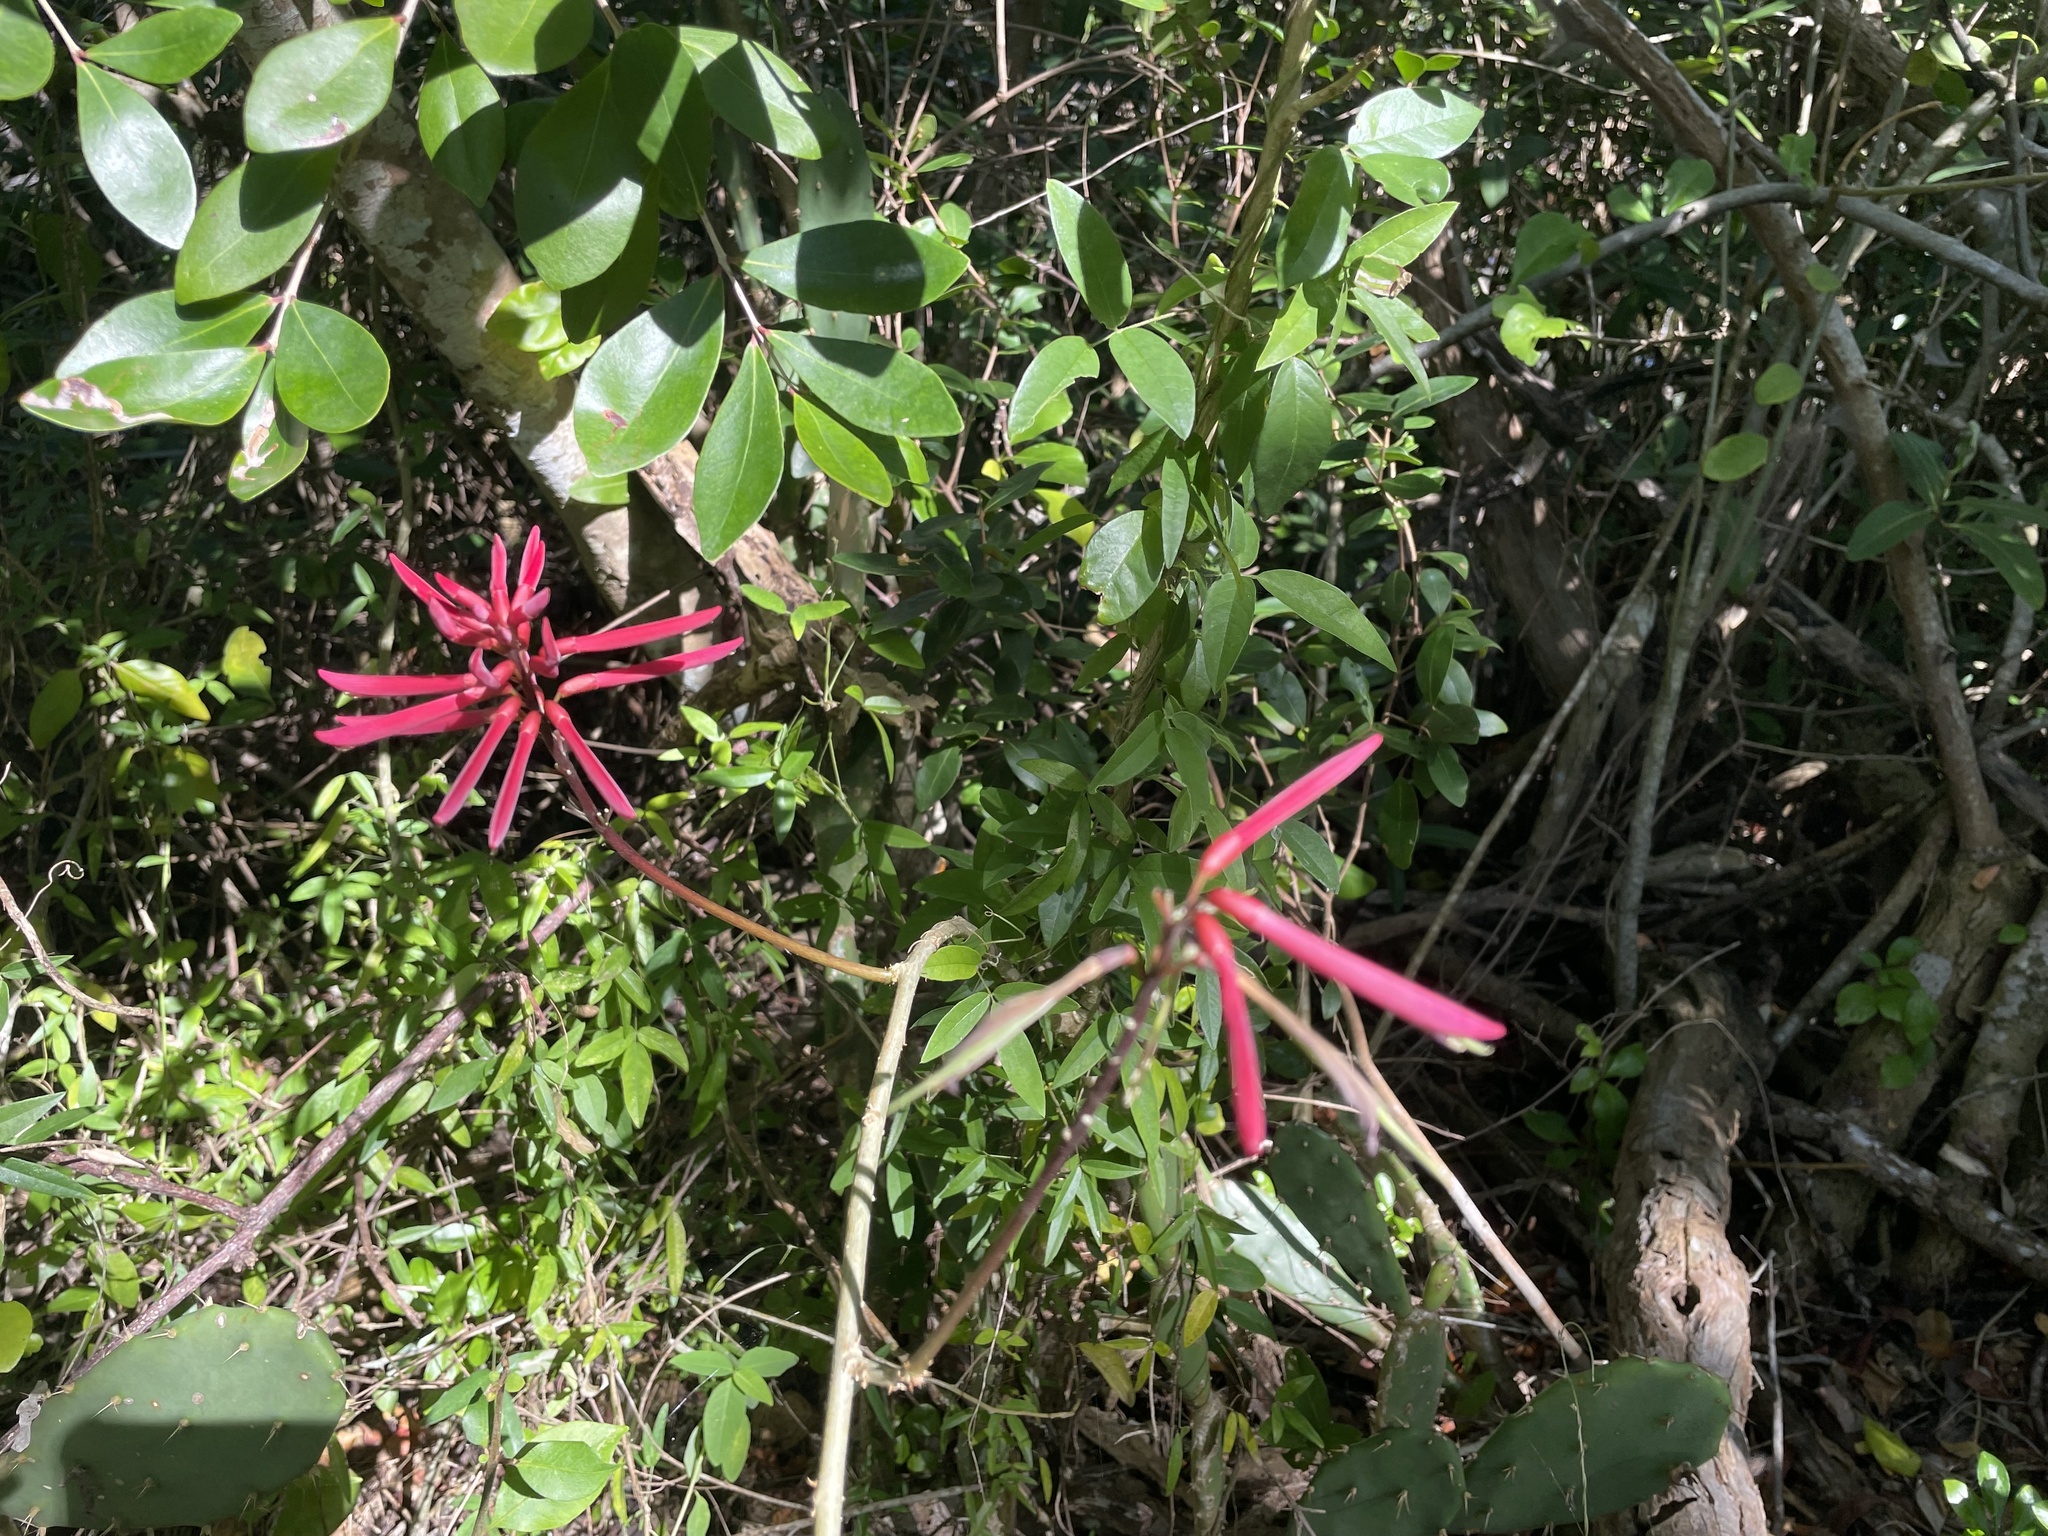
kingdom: Plantae
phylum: Tracheophyta
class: Magnoliopsida
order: Fabales
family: Fabaceae
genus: Erythrina
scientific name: Erythrina herbacea
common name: Coral-bean
